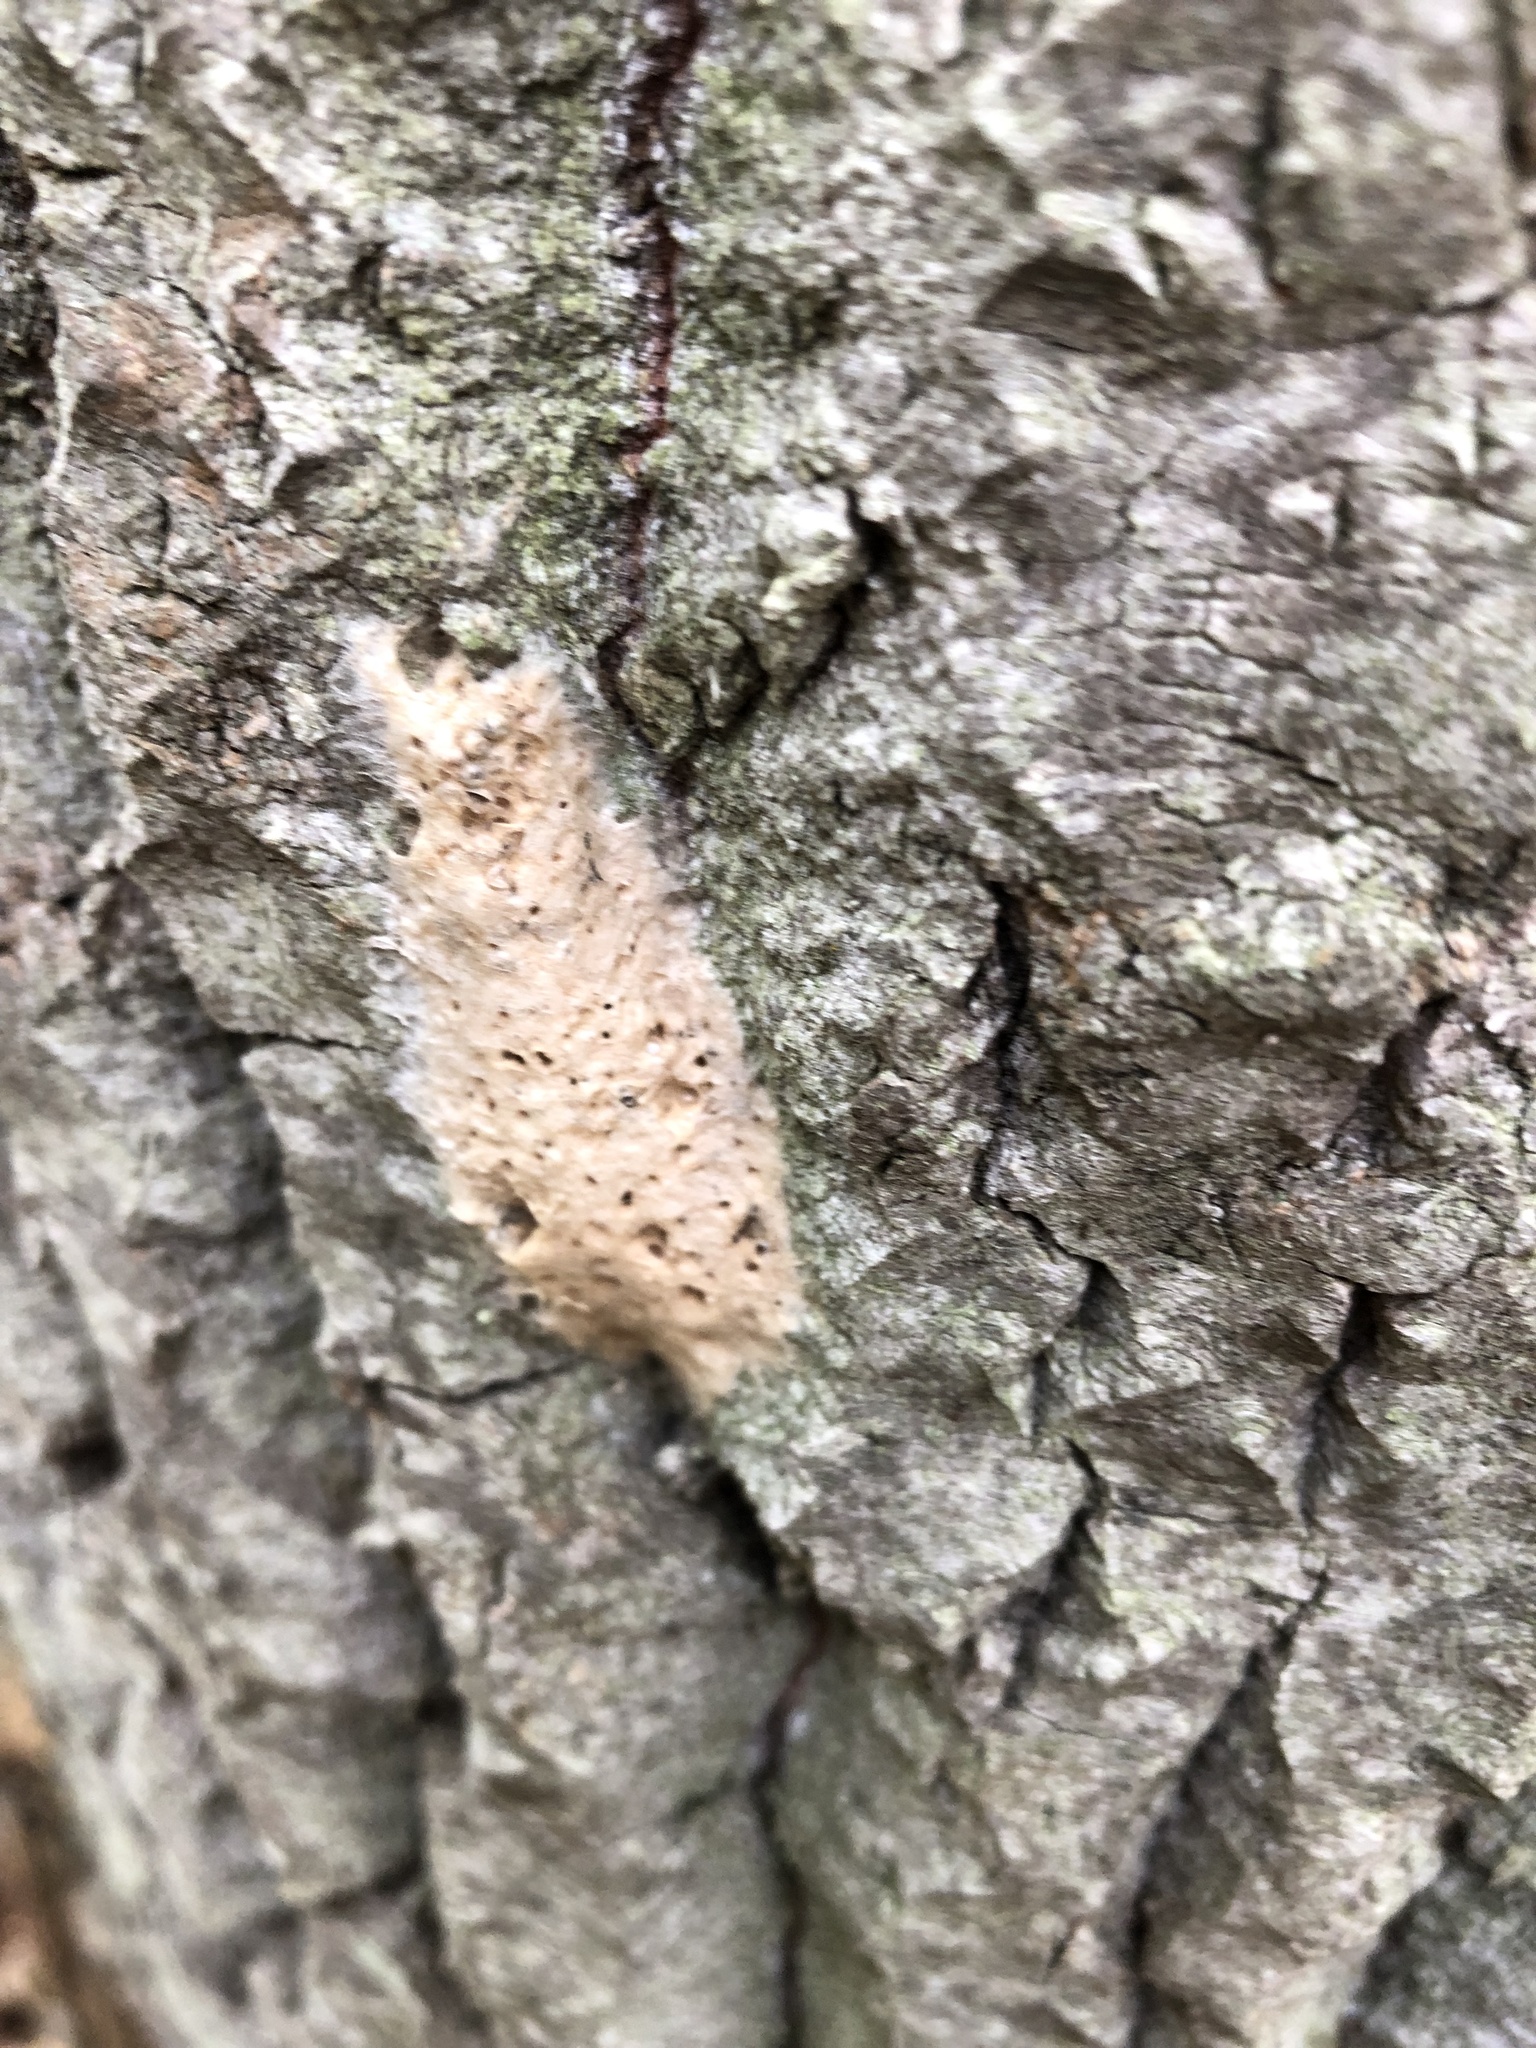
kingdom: Animalia
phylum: Arthropoda
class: Insecta
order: Lepidoptera
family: Erebidae
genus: Lymantria
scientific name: Lymantria dispar
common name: Gypsy moth
